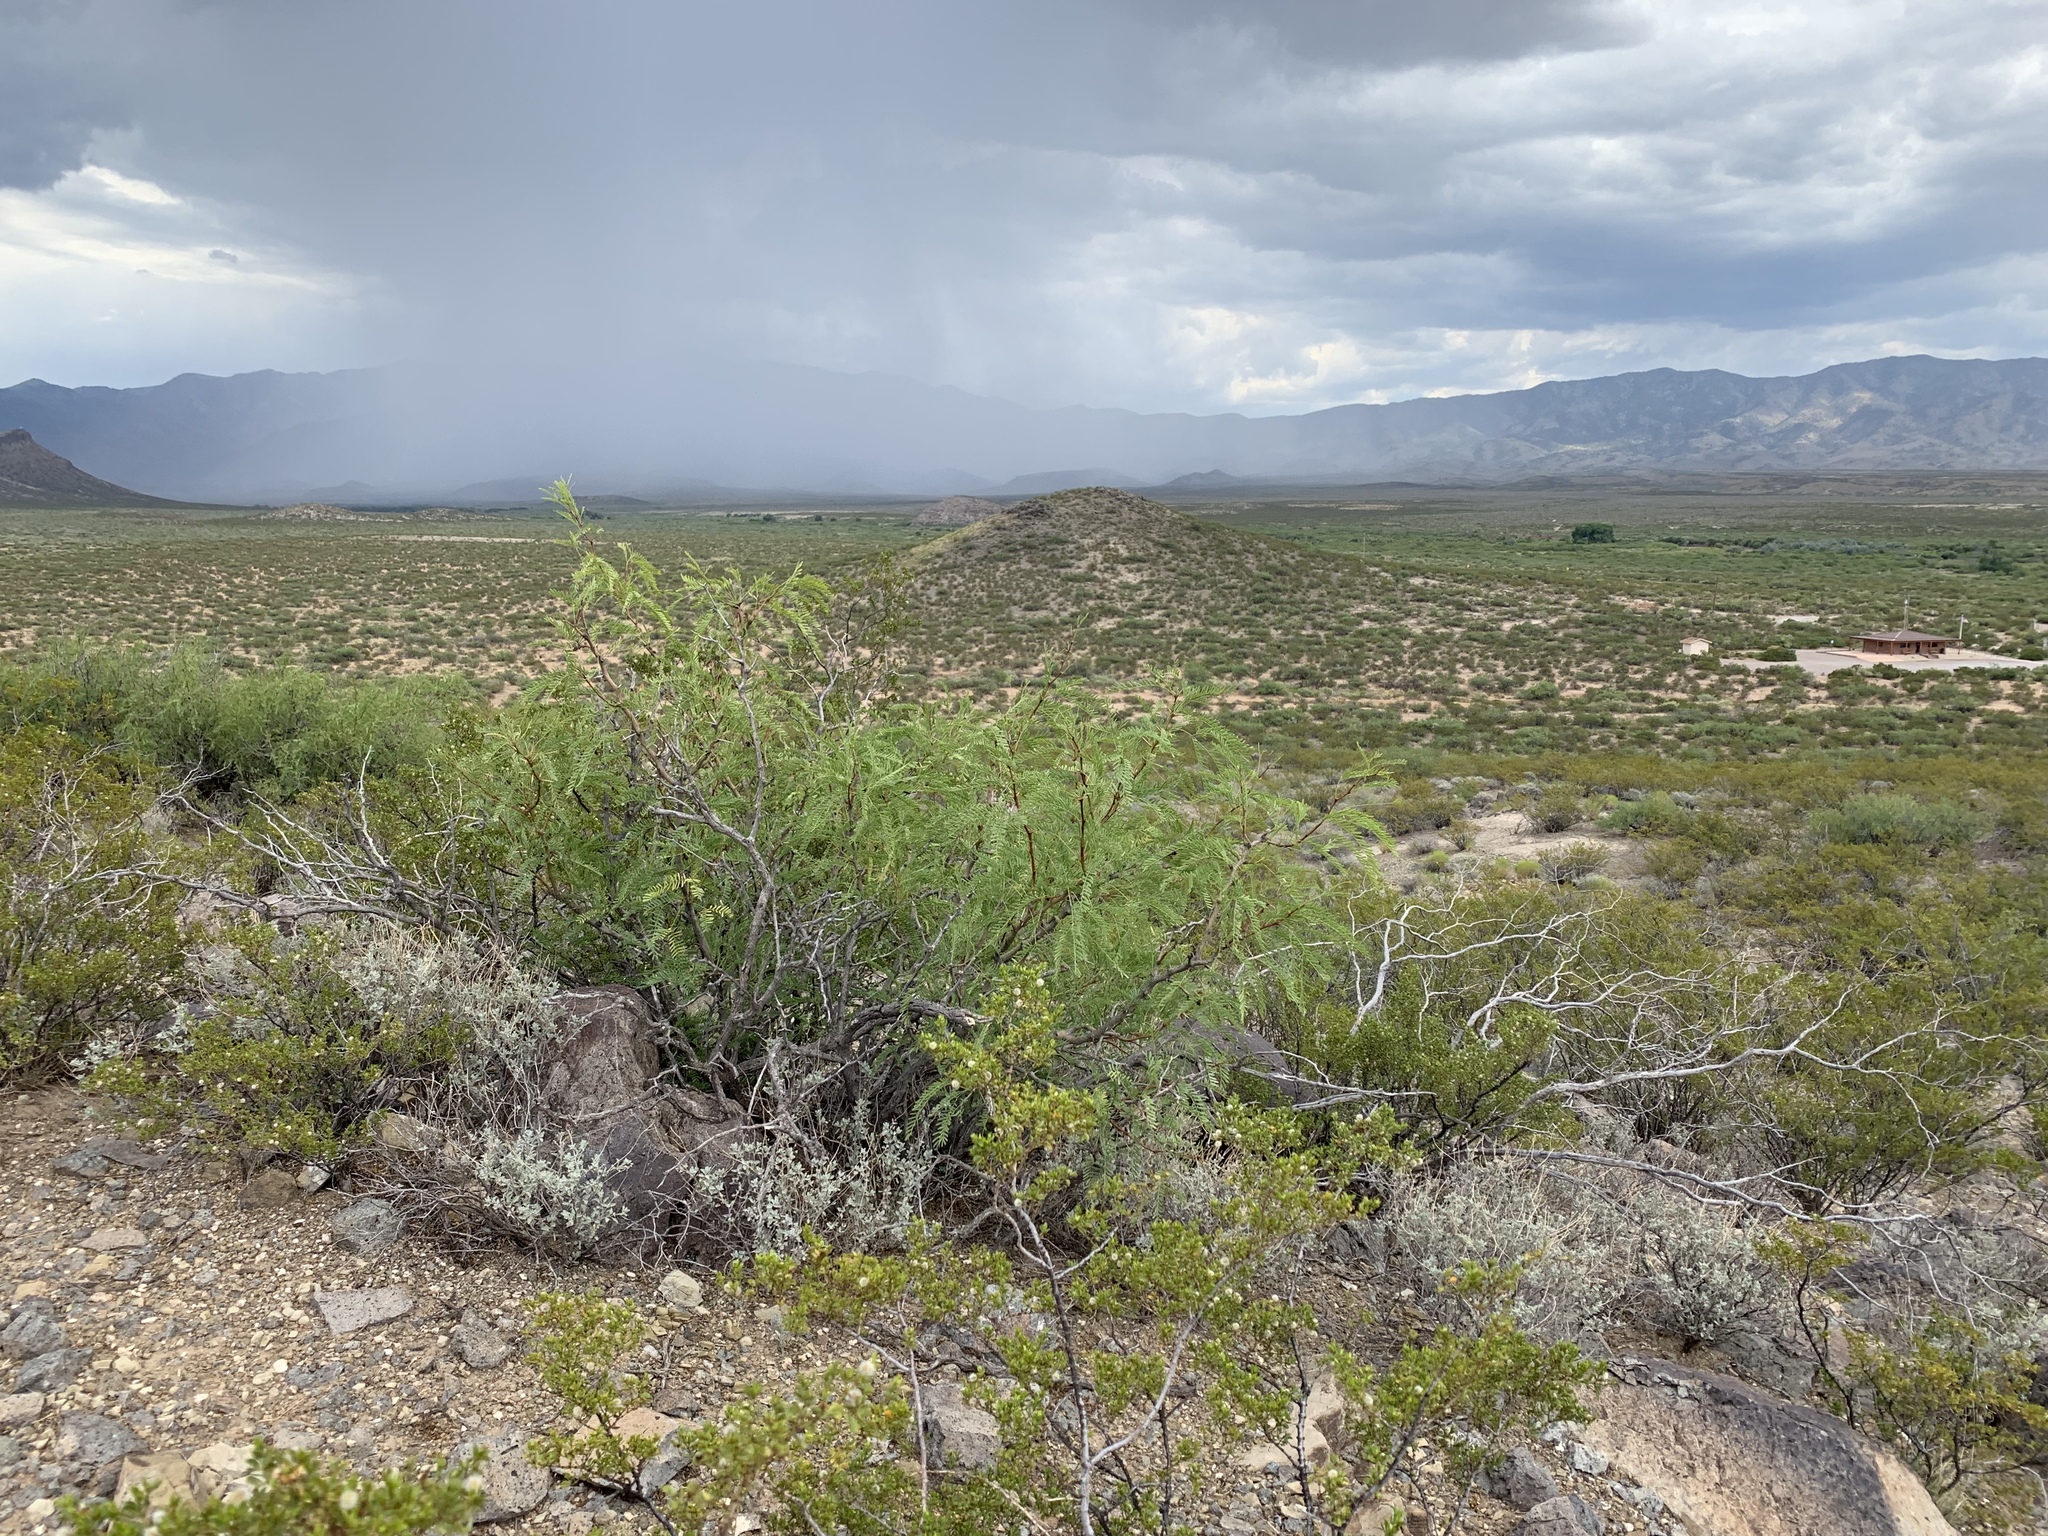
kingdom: Plantae
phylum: Tracheophyta
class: Magnoliopsida
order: Fabales
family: Fabaceae
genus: Prosopis
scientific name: Prosopis glandulosa
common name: Honey mesquite
